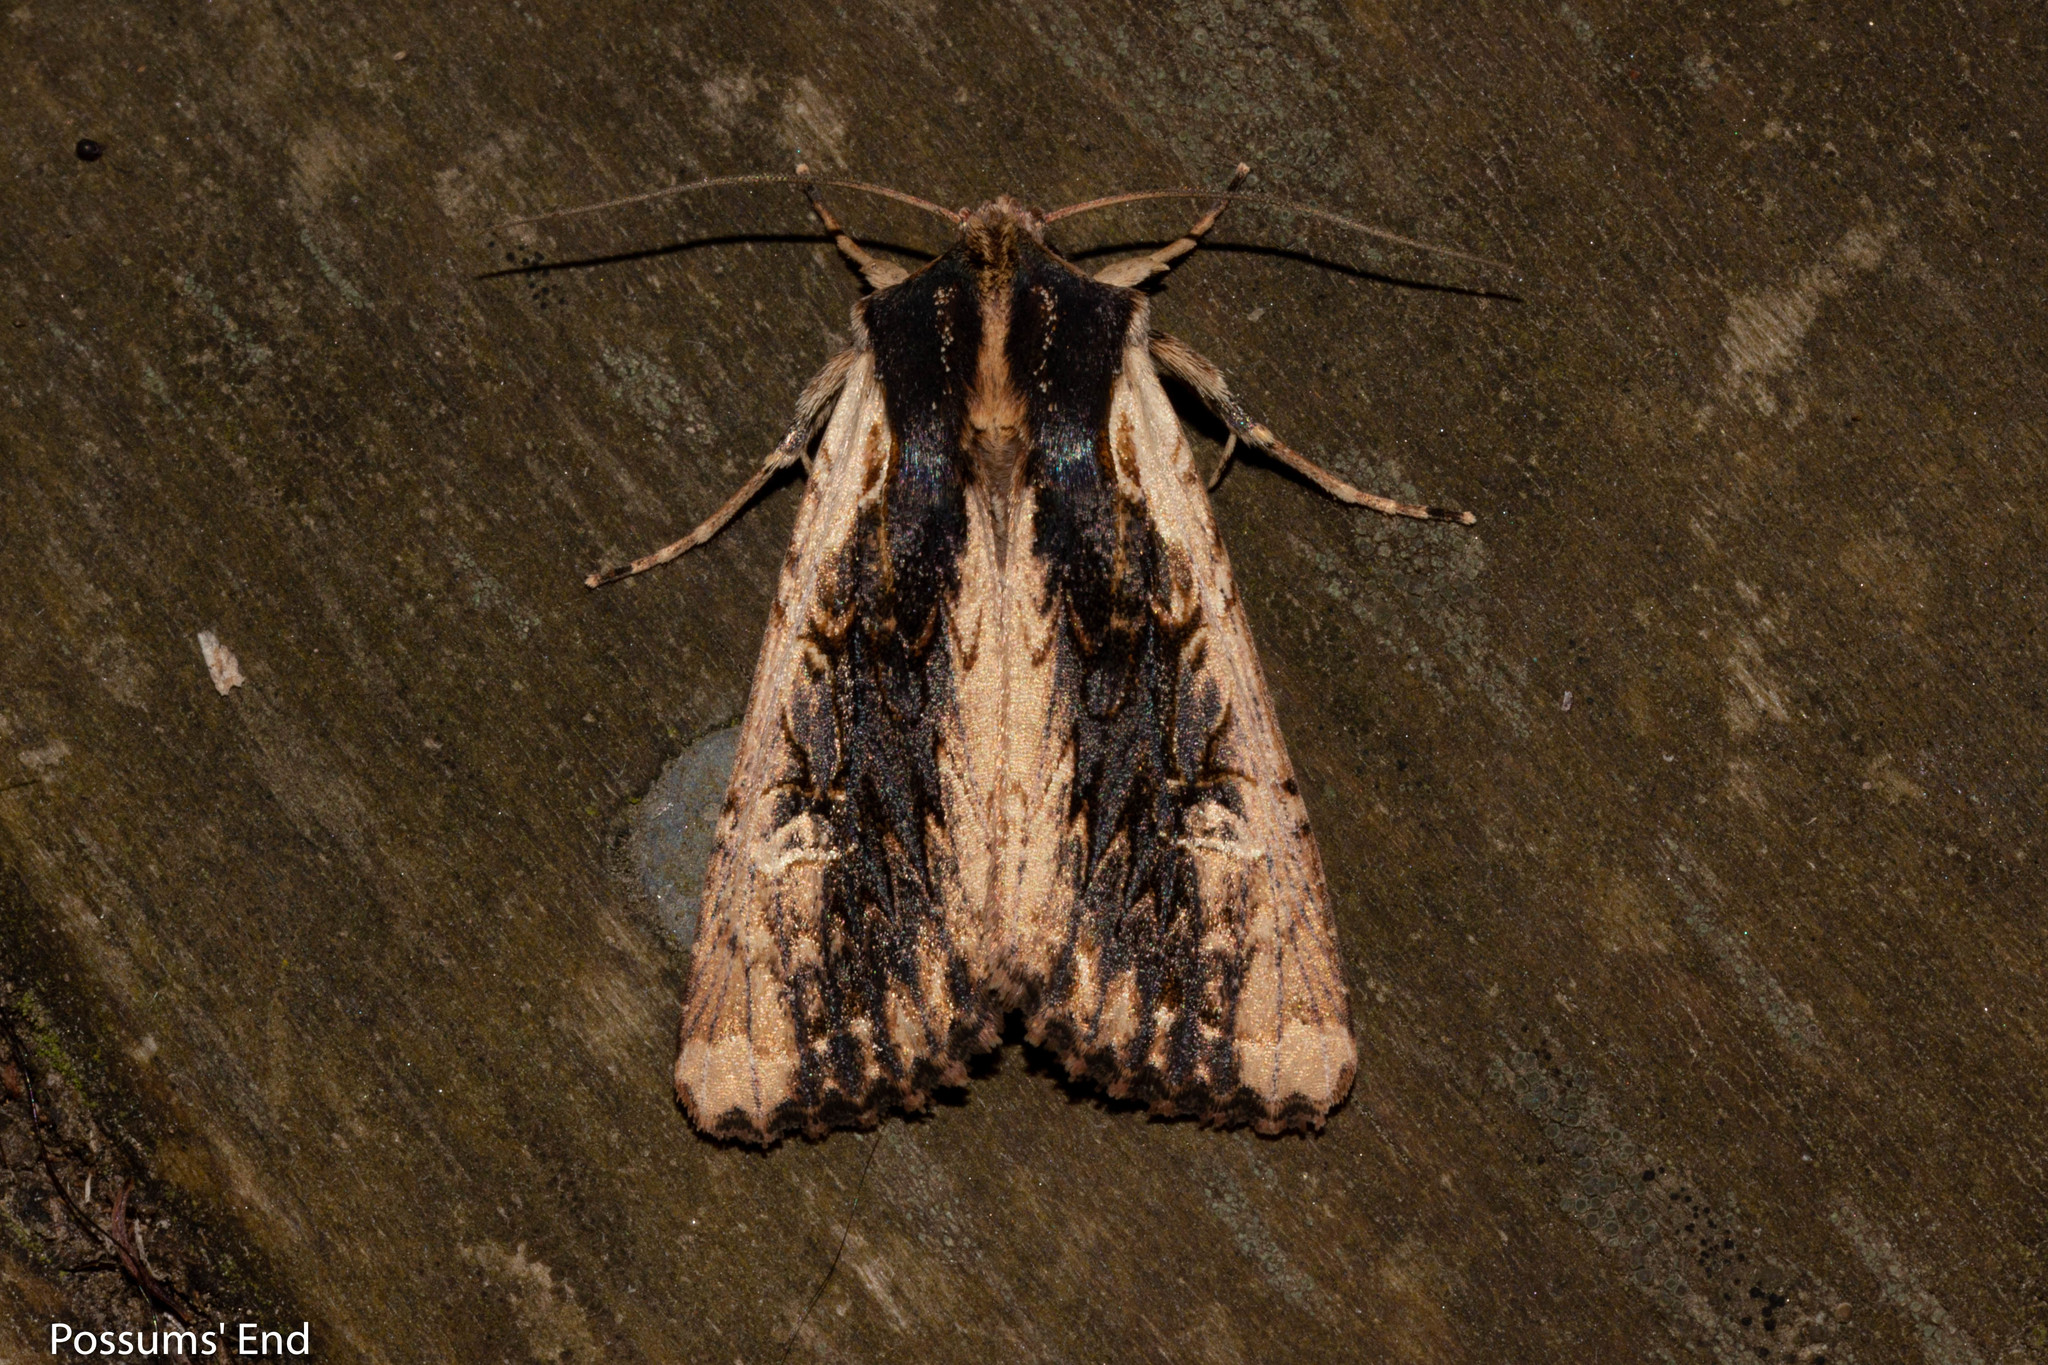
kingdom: Animalia
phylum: Arthropoda
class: Insecta
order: Lepidoptera
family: Noctuidae
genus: Ichneutica
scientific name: Ichneutica omoplaca
